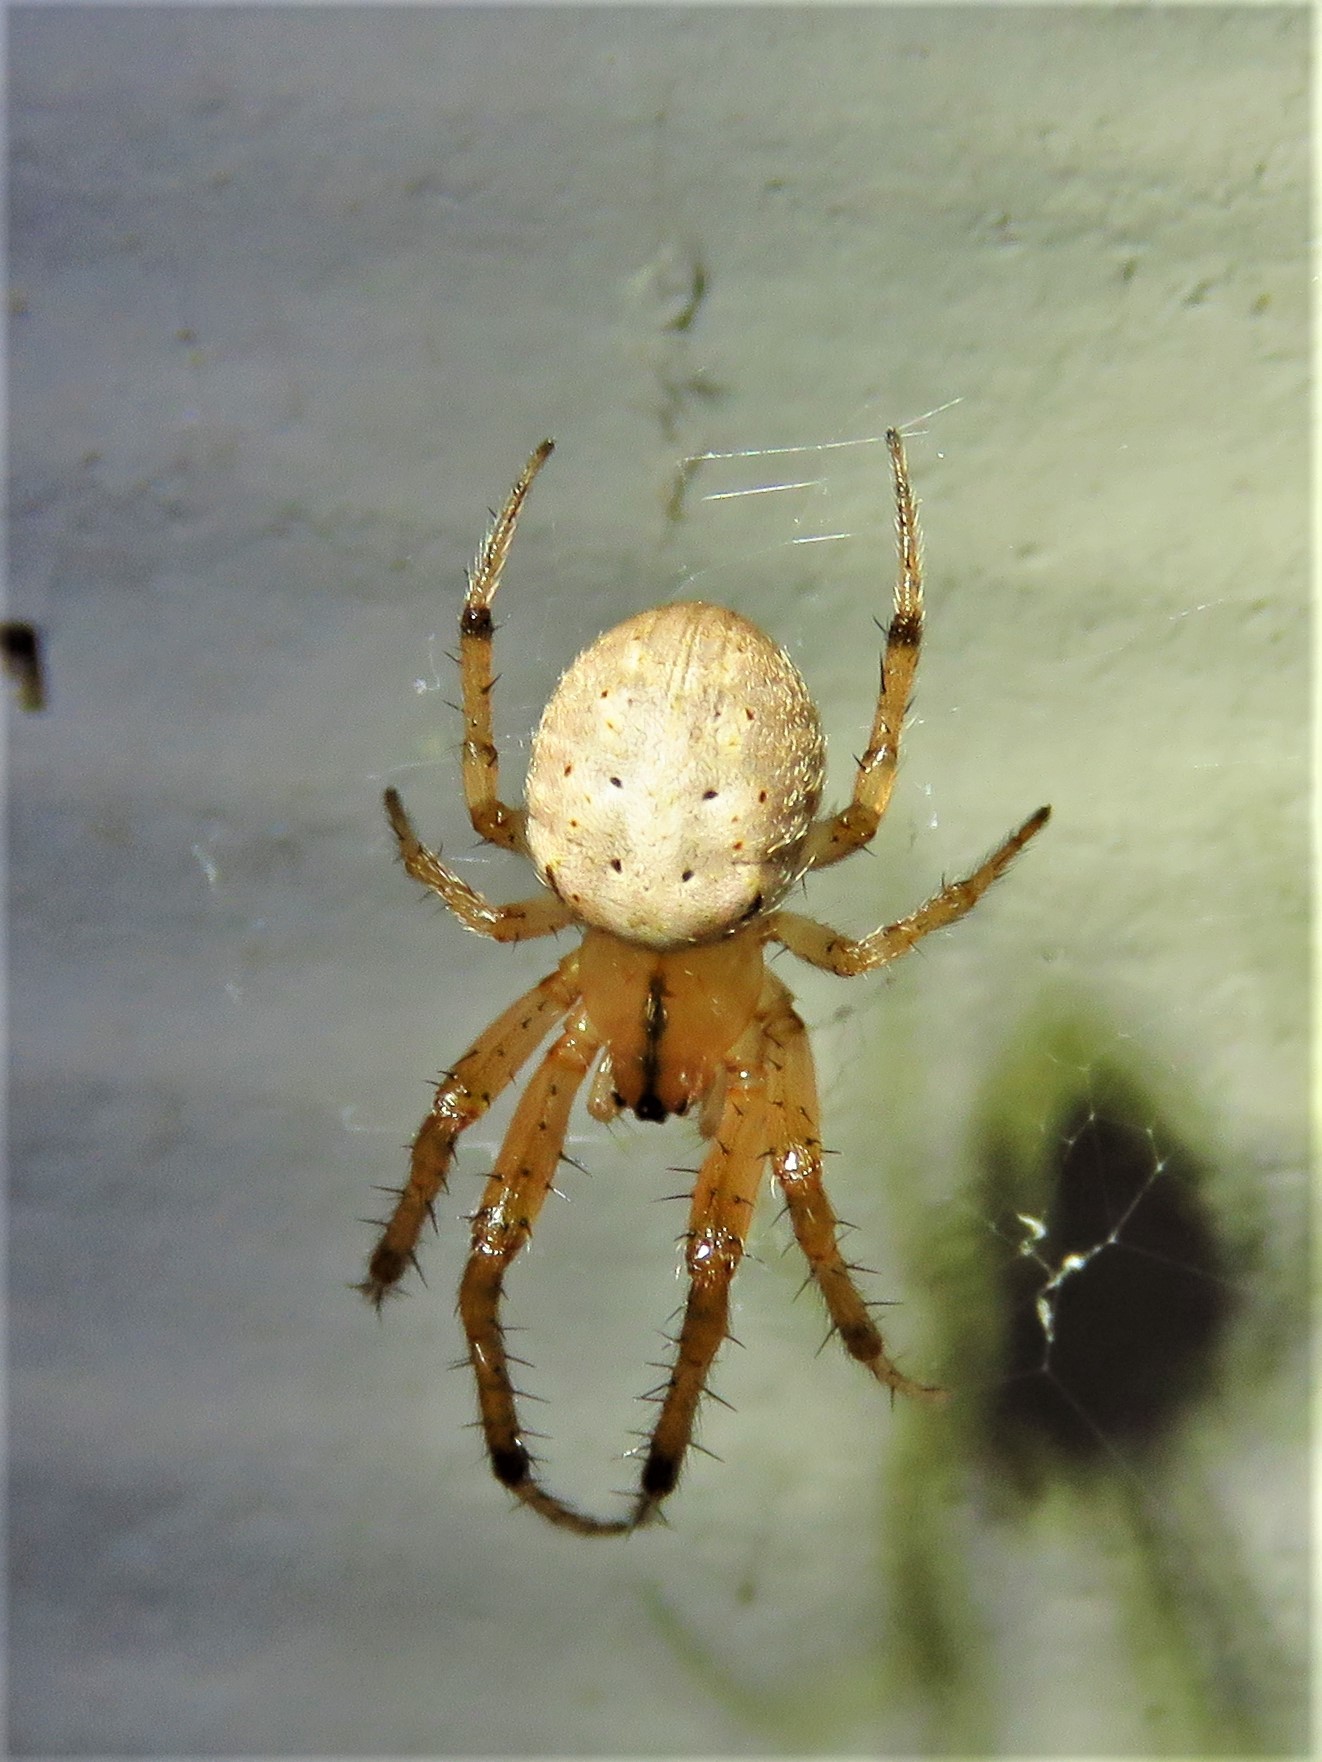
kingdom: Animalia
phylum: Arthropoda
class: Arachnida
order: Araneae
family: Araneidae
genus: Metazygia
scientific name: Metazygia zilloides
